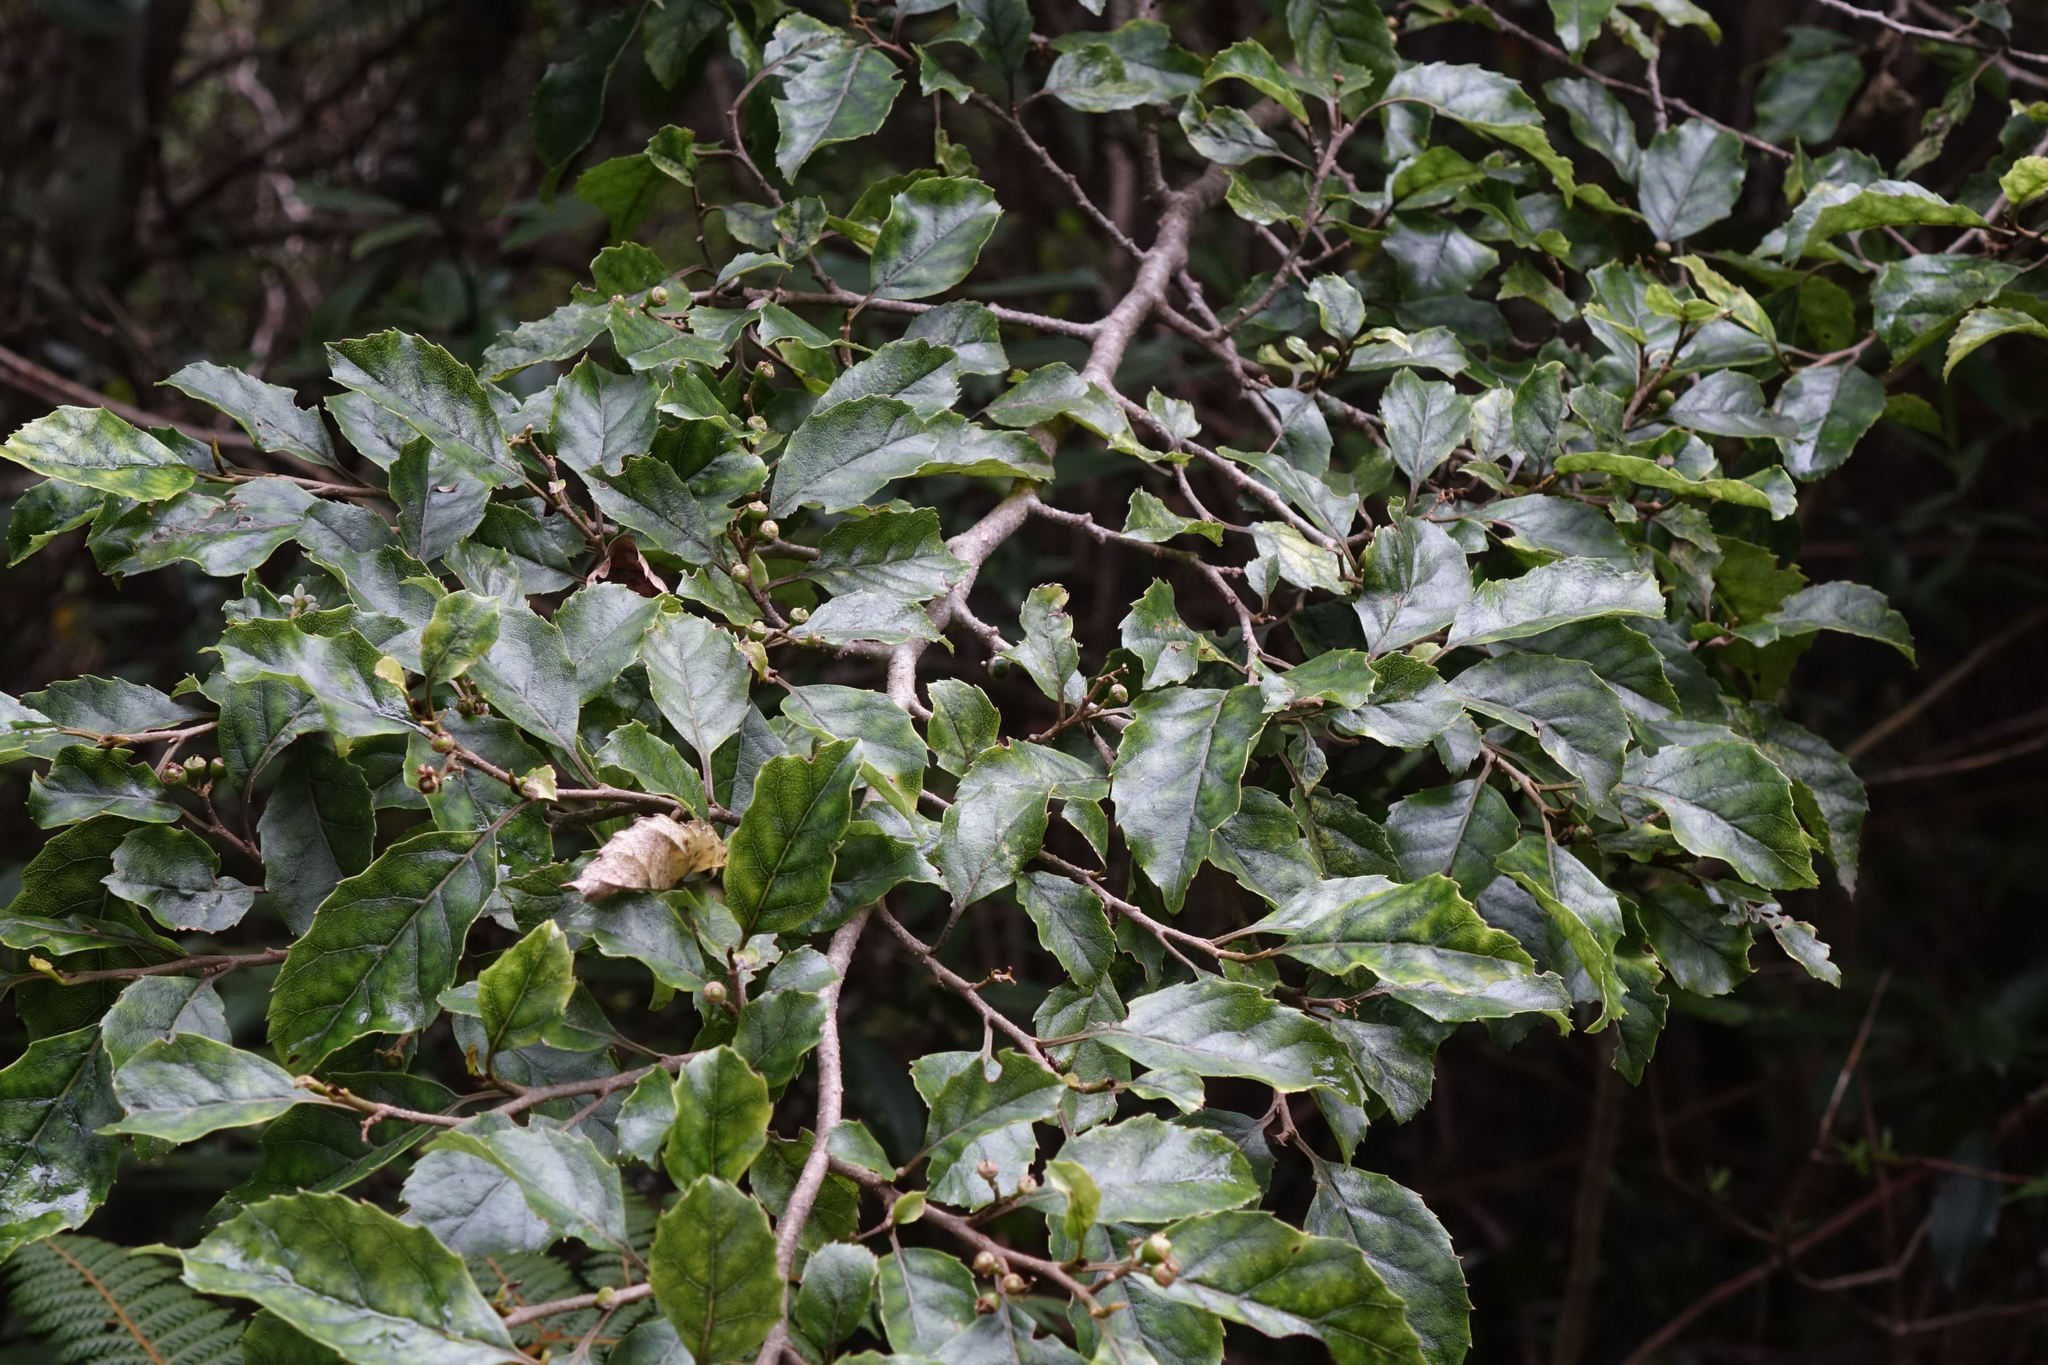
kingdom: Plantae
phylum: Tracheophyta
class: Magnoliopsida
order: Asterales
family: Rousseaceae
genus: Carpodetus
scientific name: Carpodetus serratus
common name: White mapau
